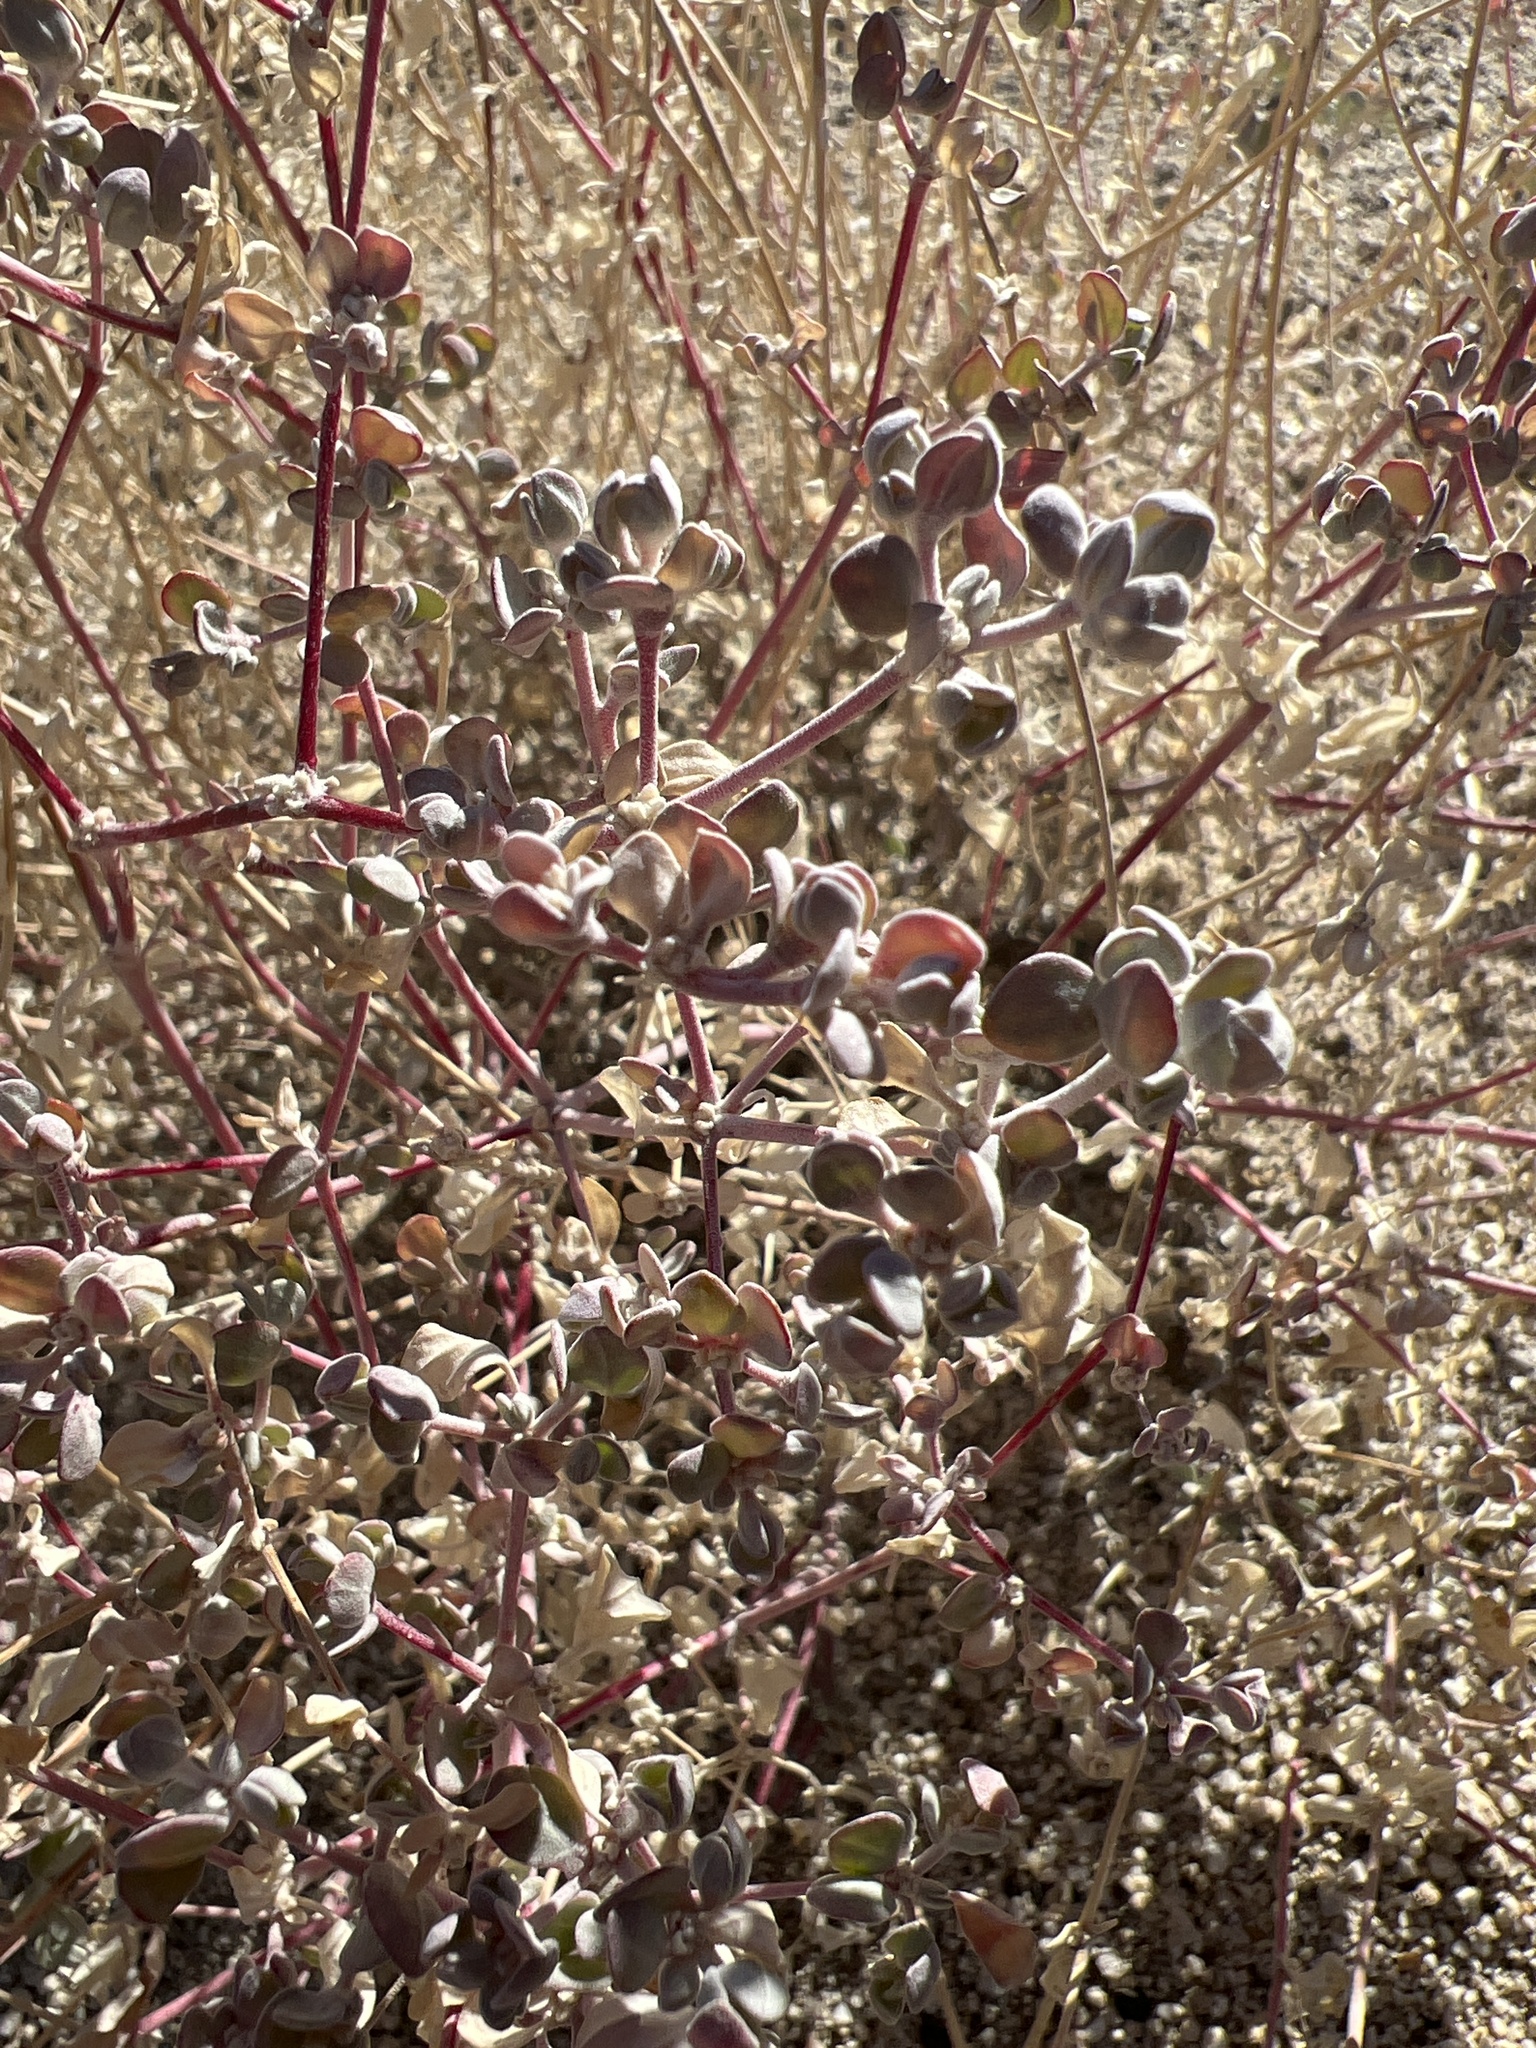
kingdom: Plantae
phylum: Tracheophyta
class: Magnoliopsida
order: Caryophyllales
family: Amaranthaceae
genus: Tidestromia
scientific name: Tidestromia suffruticosa
